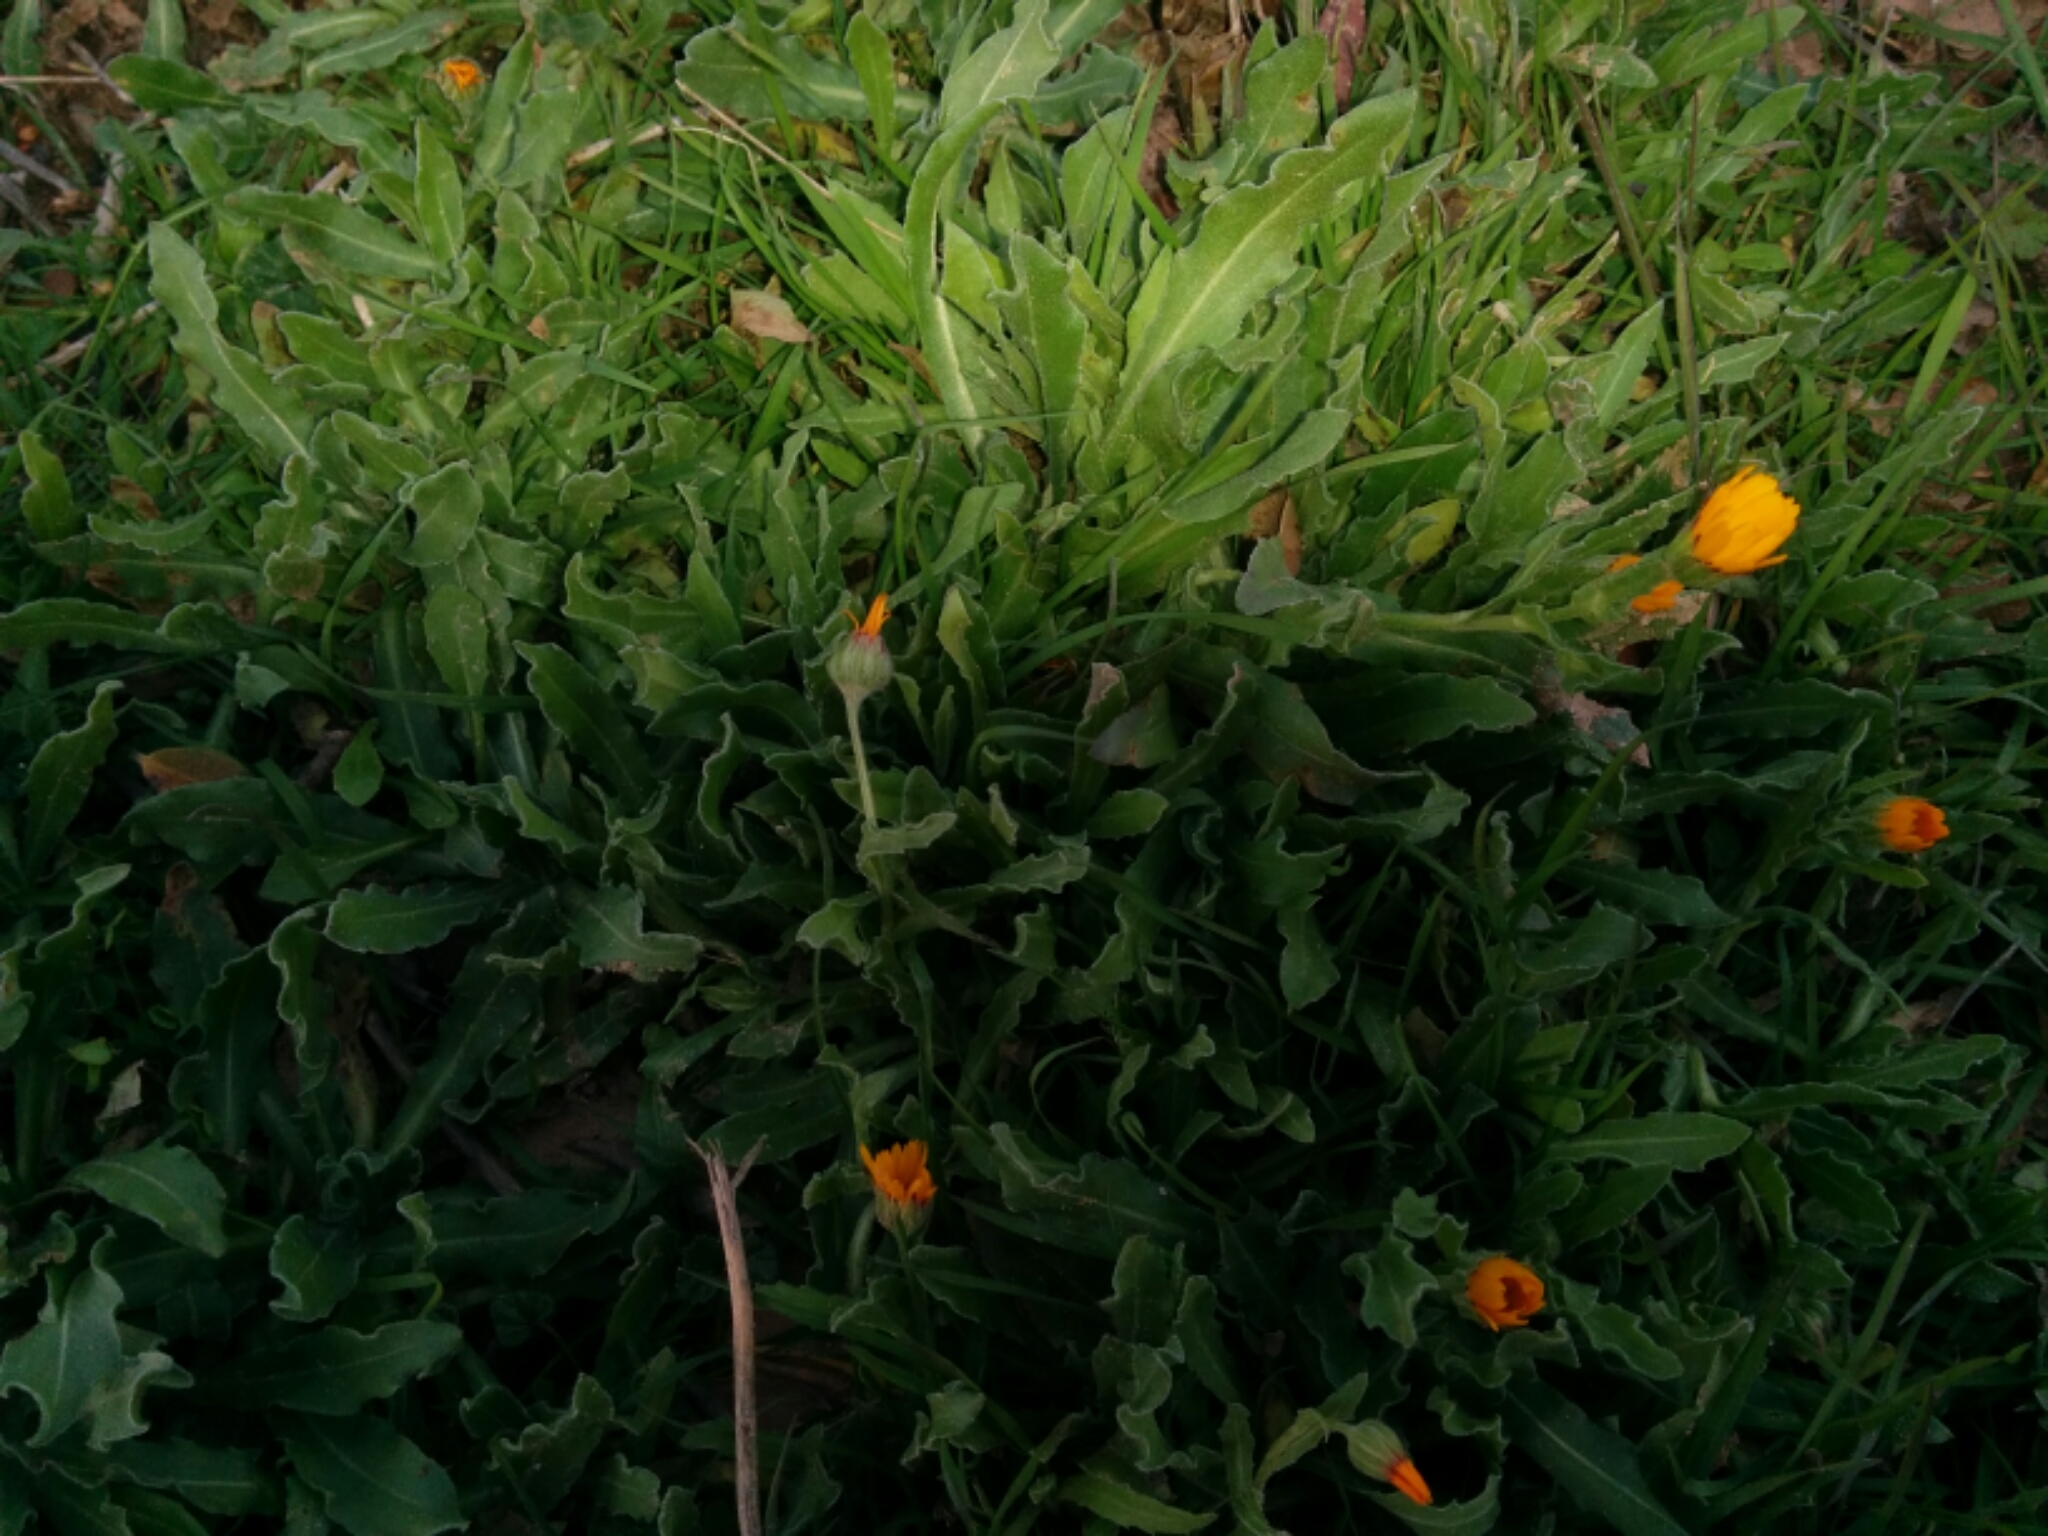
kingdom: Plantae
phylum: Tracheophyta
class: Magnoliopsida
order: Asterales
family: Asteraceae
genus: Calendula
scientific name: Calendula arvensis
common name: Field marigold
